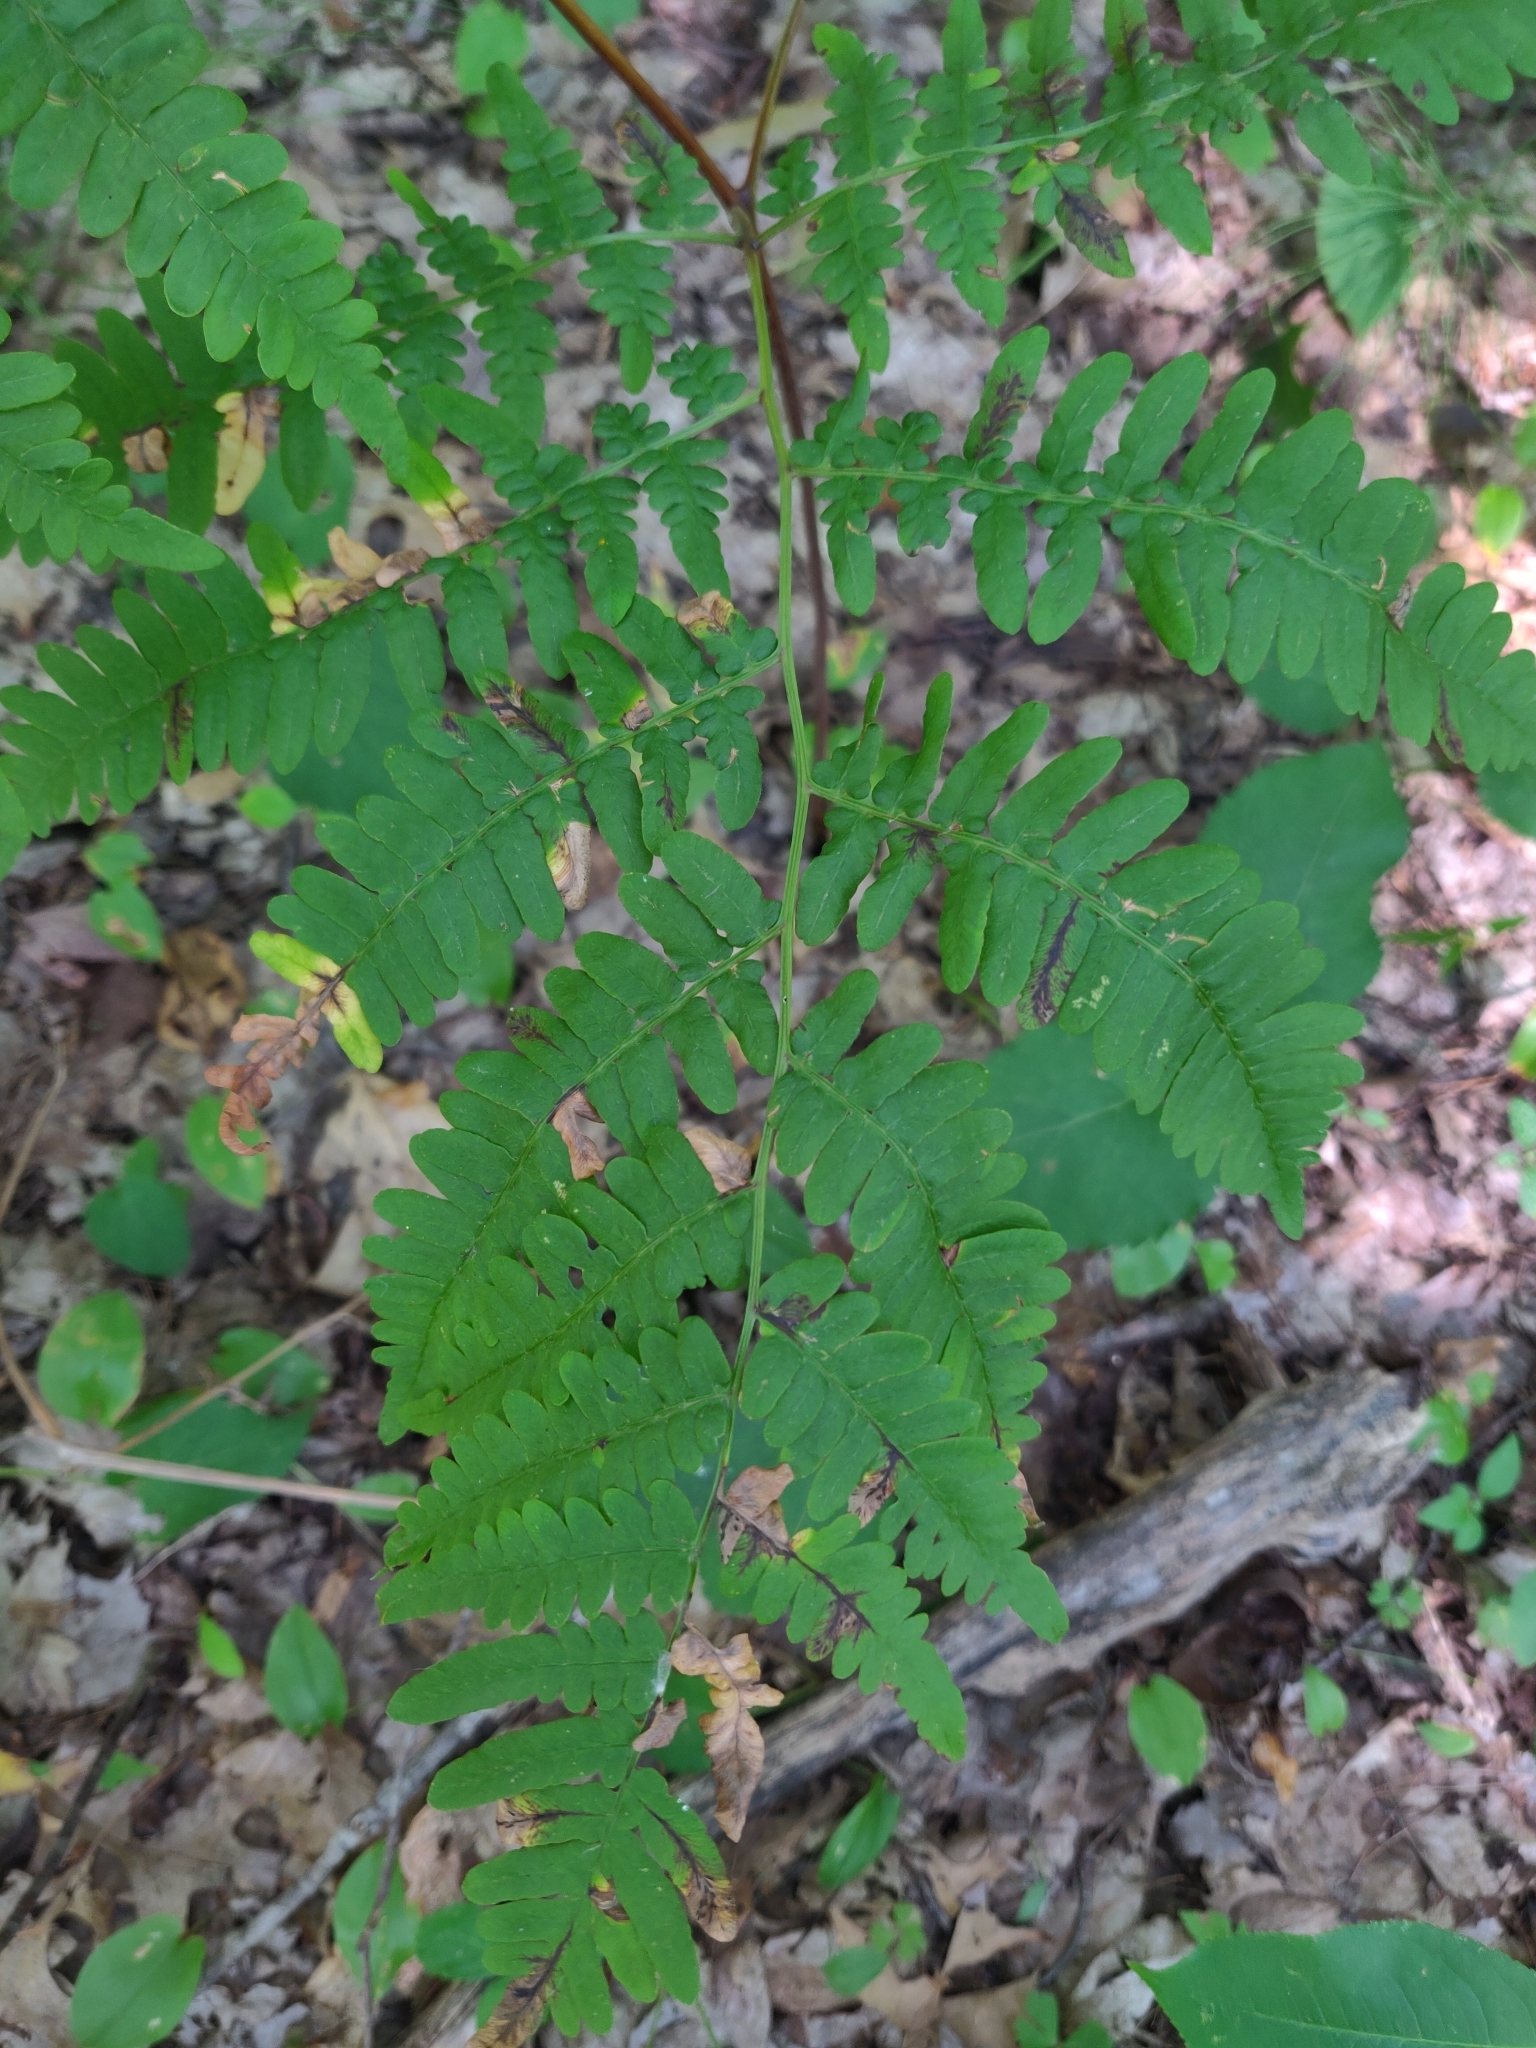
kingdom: Plantae
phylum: Tracheophyta
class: Polypodiopsida
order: Polypodiales
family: Dennstaedtiaceae
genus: Pteridium
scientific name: Pteridium aquilinum
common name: Bracken
